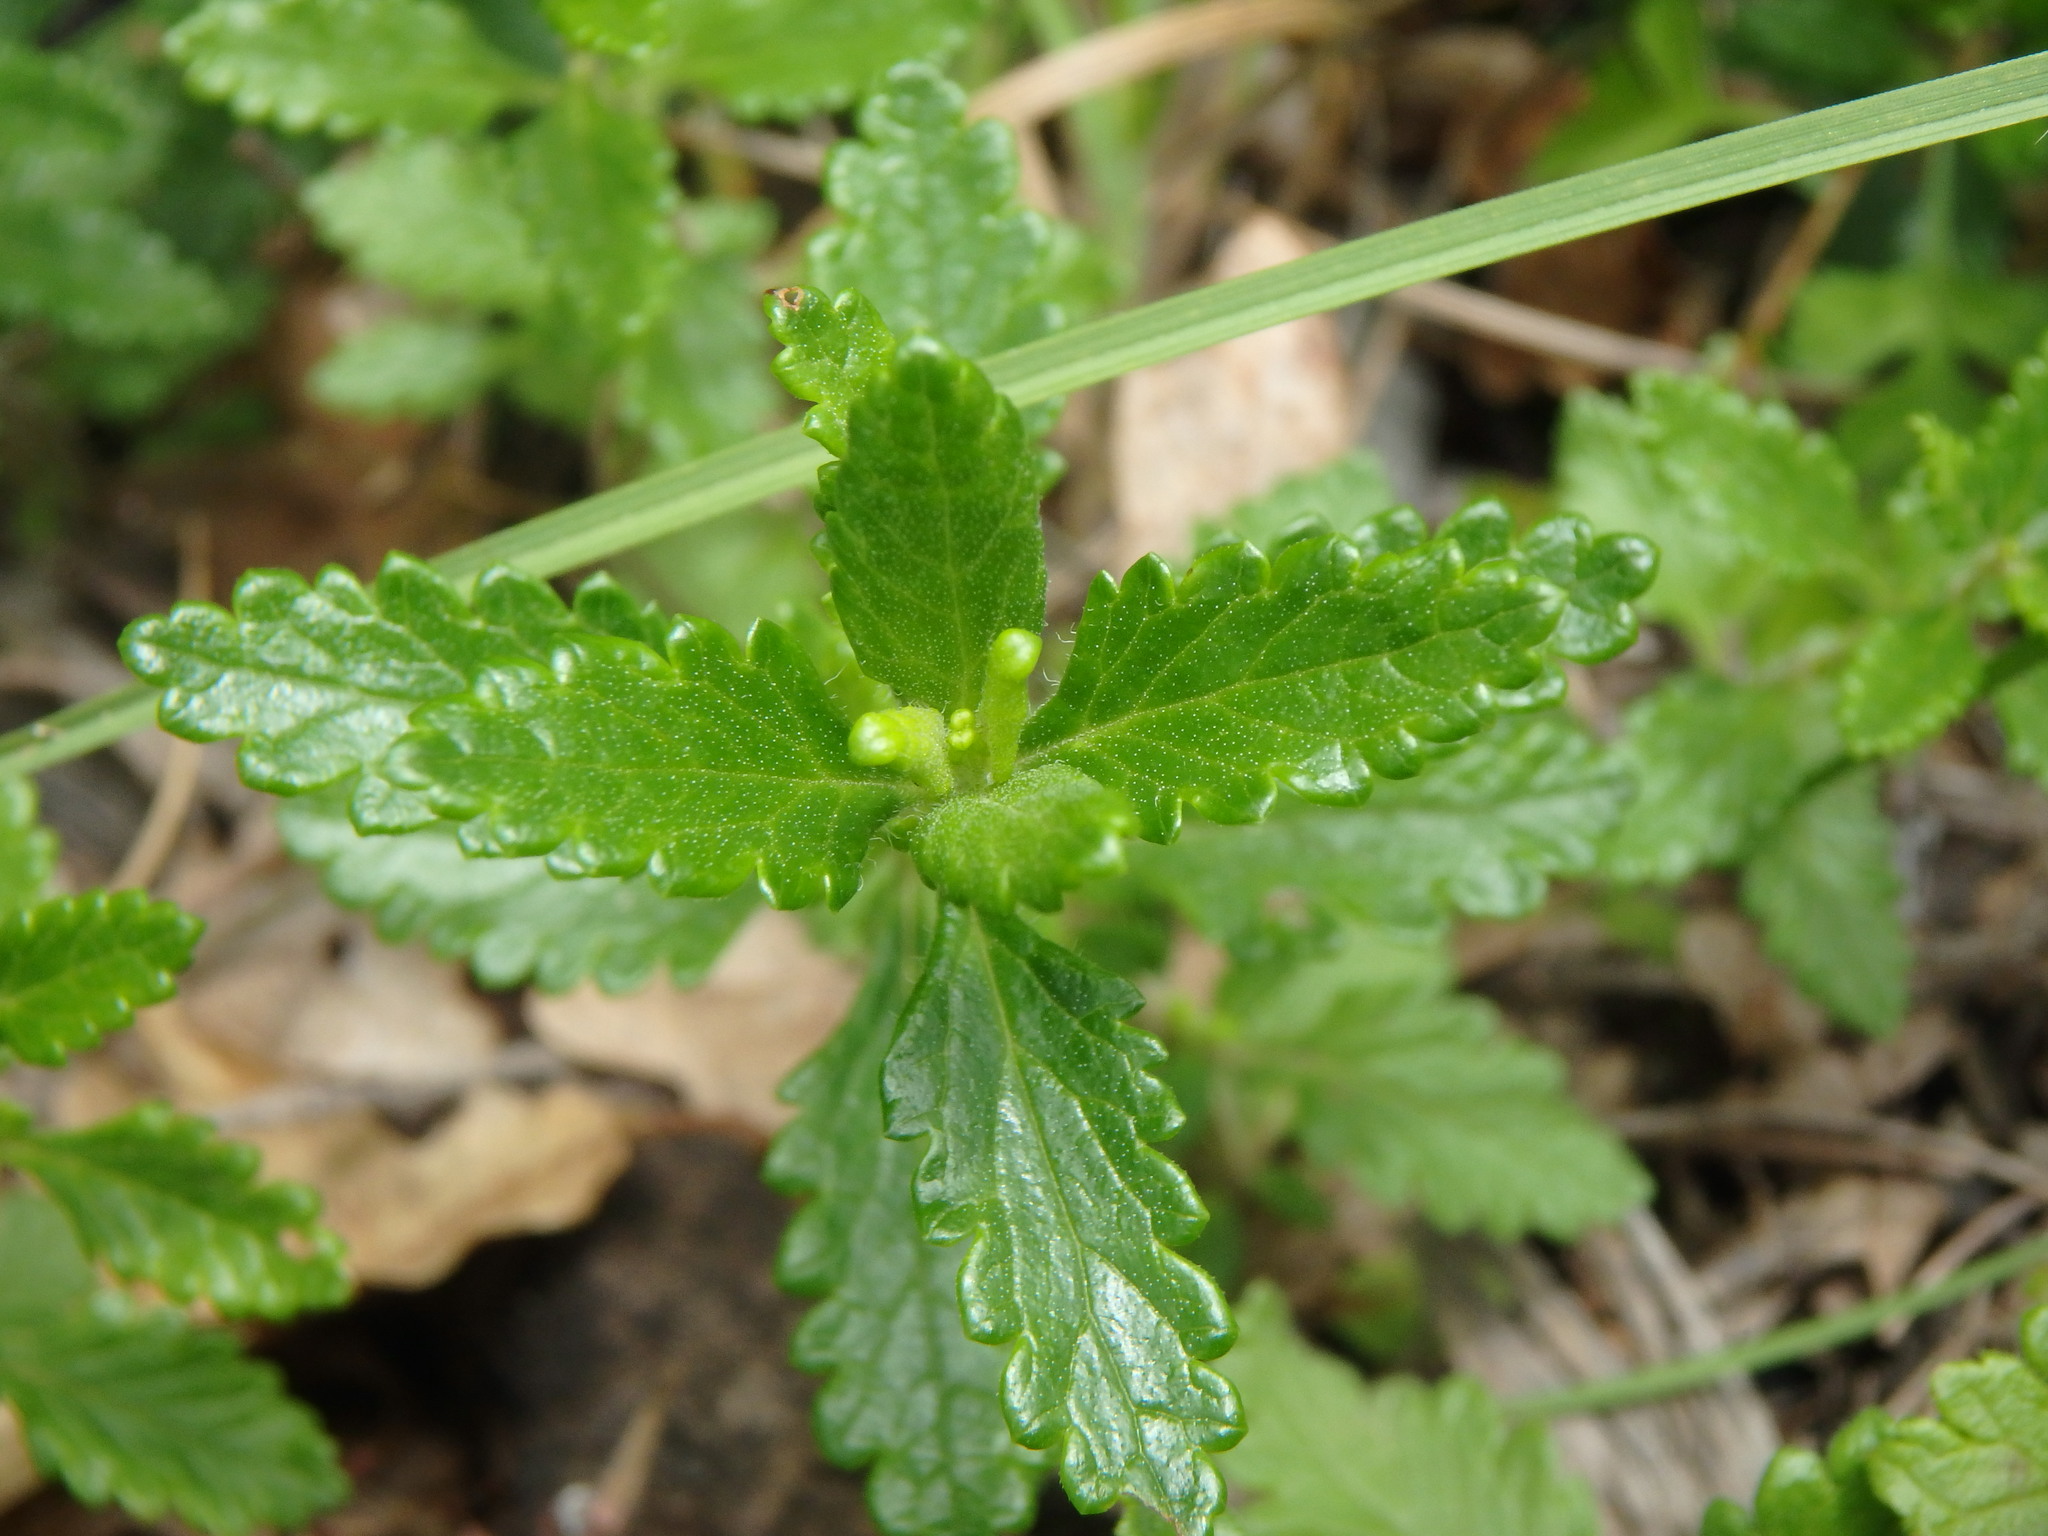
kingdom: Plantae
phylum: Tracheophyta
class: Magnoliopsida
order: Lamiales
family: Lamiaceae
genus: Teucrium
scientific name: Teucrium chamaedrys
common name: Wall germander
